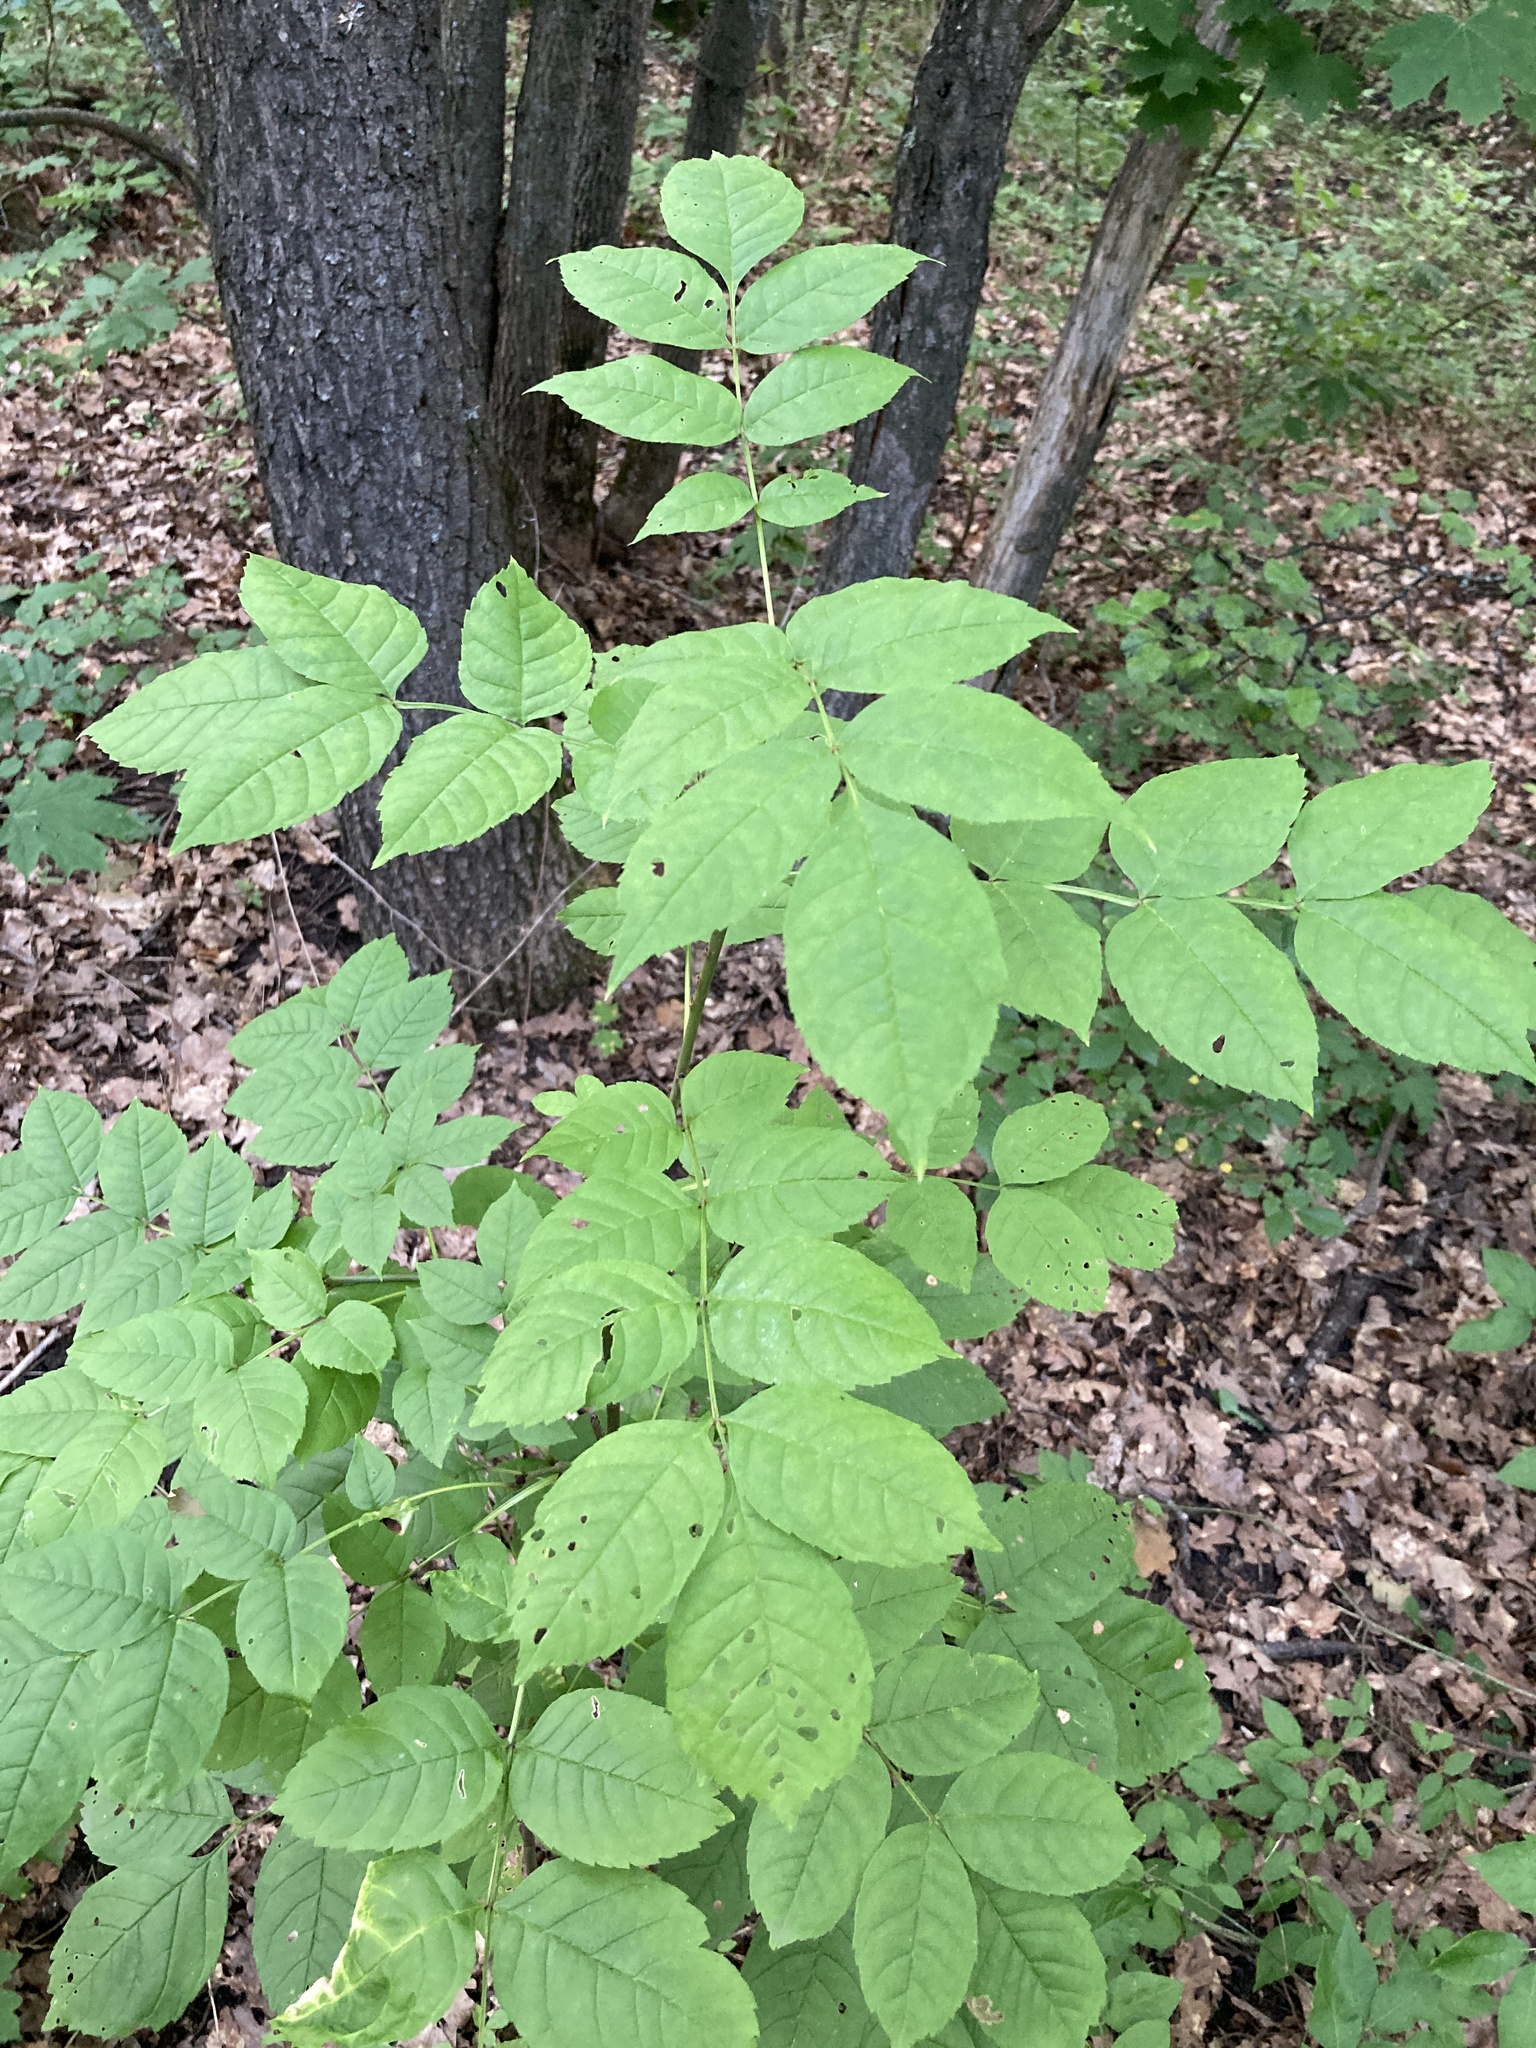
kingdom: Plantae
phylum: Tracheophyta
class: Magnoliopsida
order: Lamiales
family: Oleaceae
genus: Fraxinus
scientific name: Fraxinus excelsior
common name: European ash
